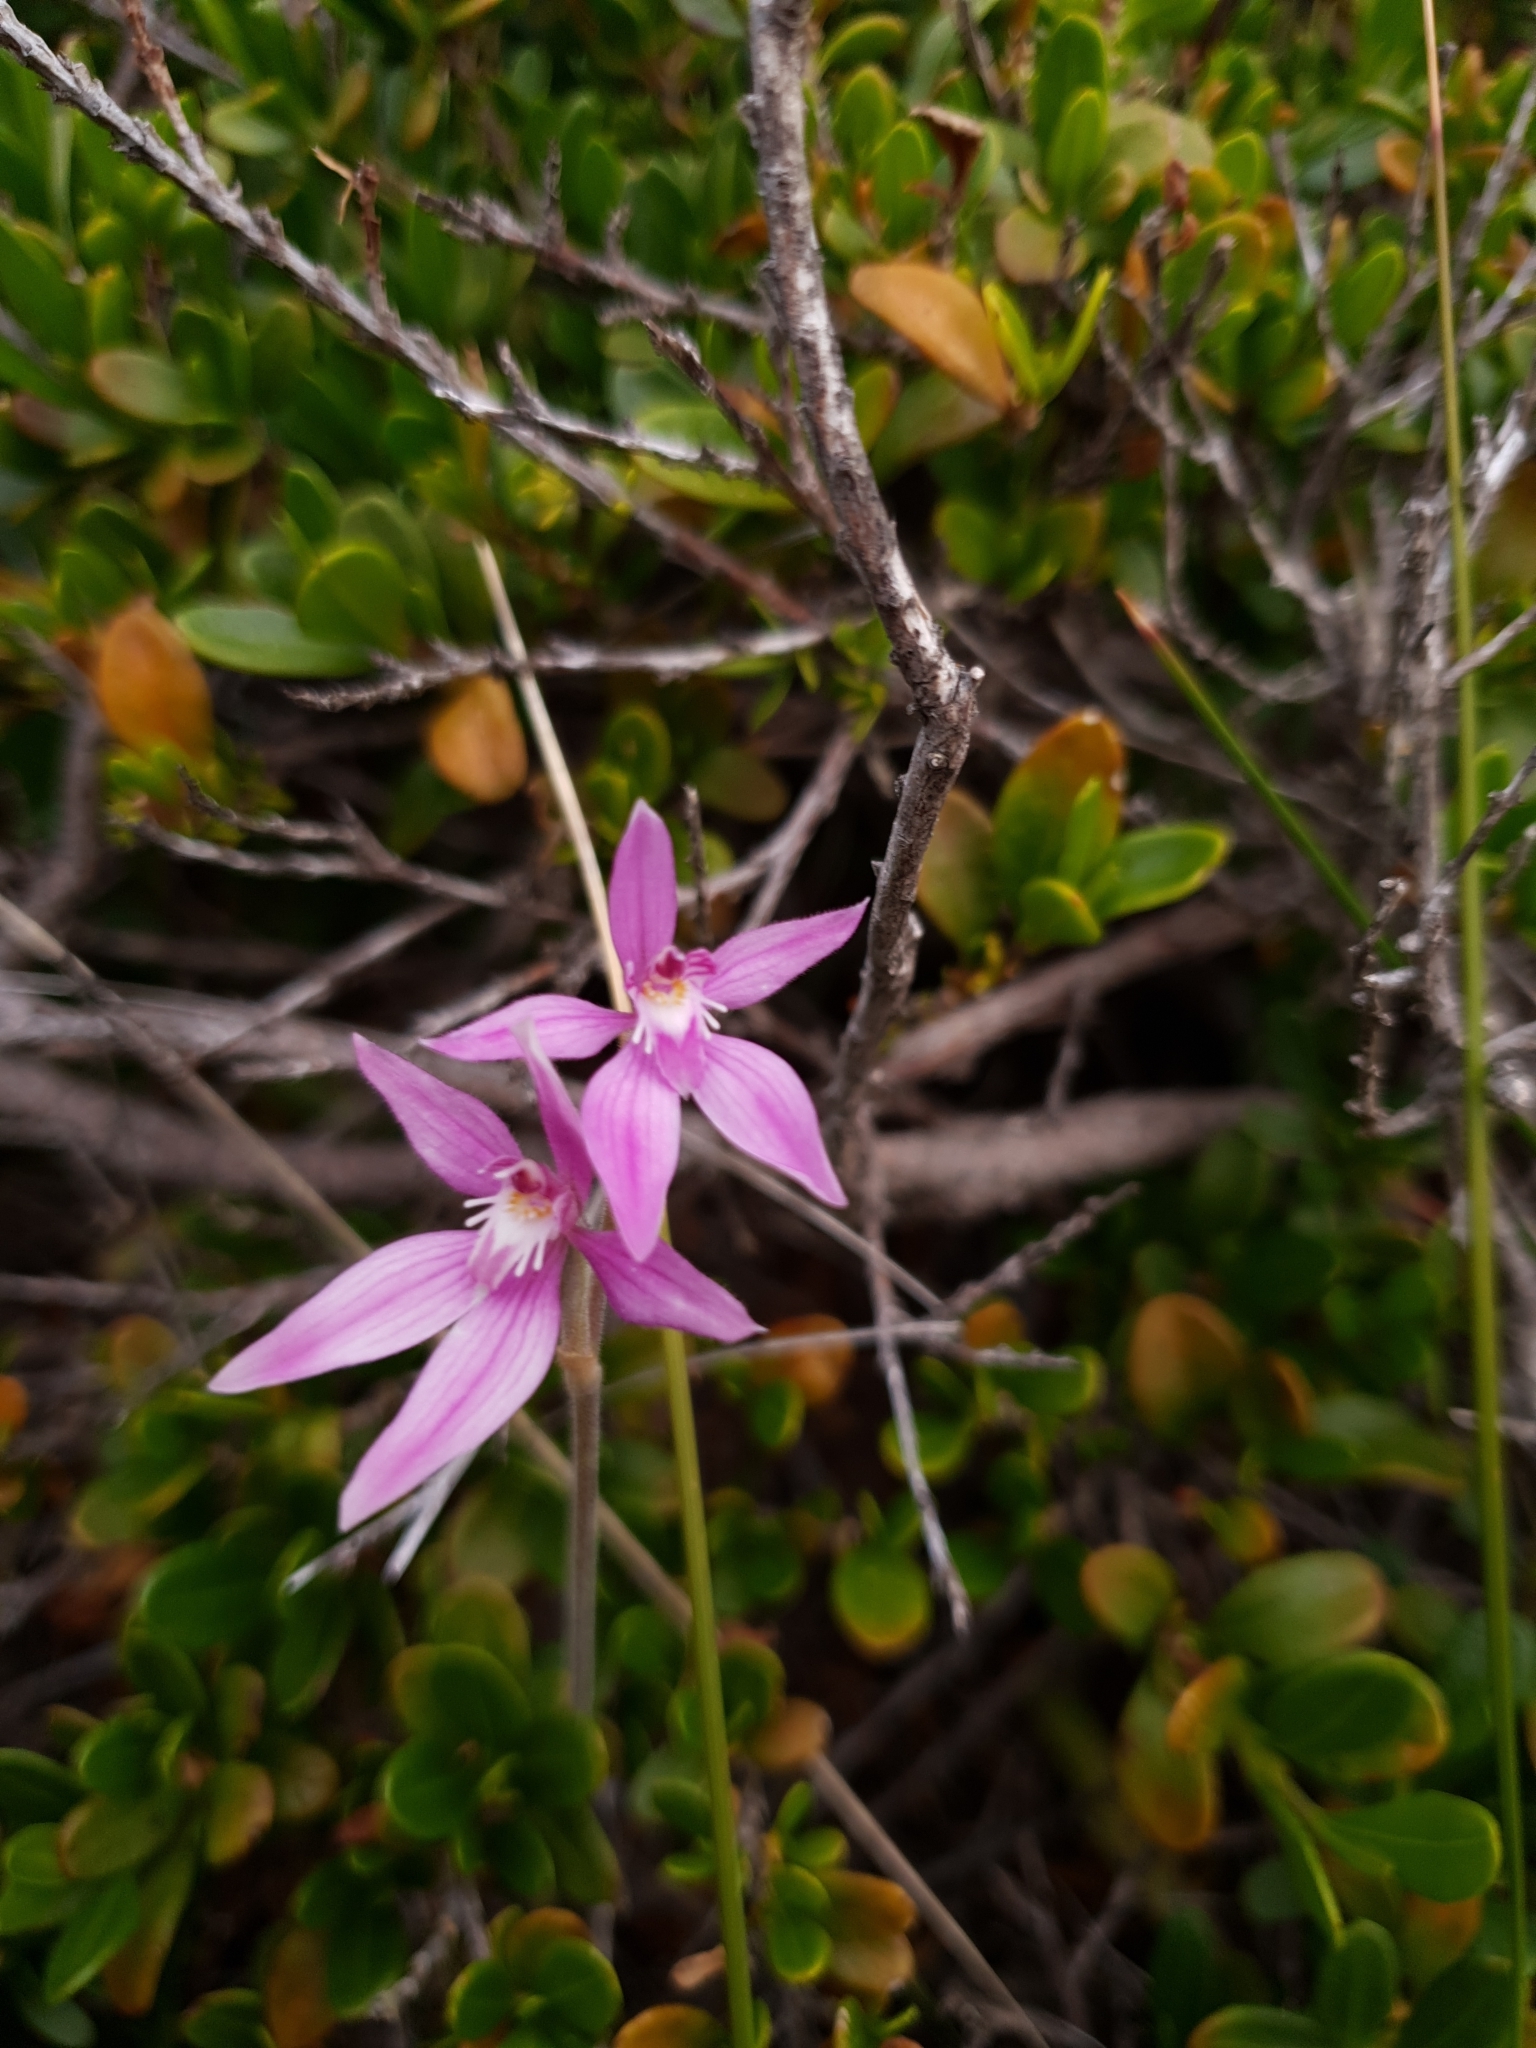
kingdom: Plantae
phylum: Tracheophyta
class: Liliopsida
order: Asparagales
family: Orchidaceae
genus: Caladenia
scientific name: Caladenia latifolia
